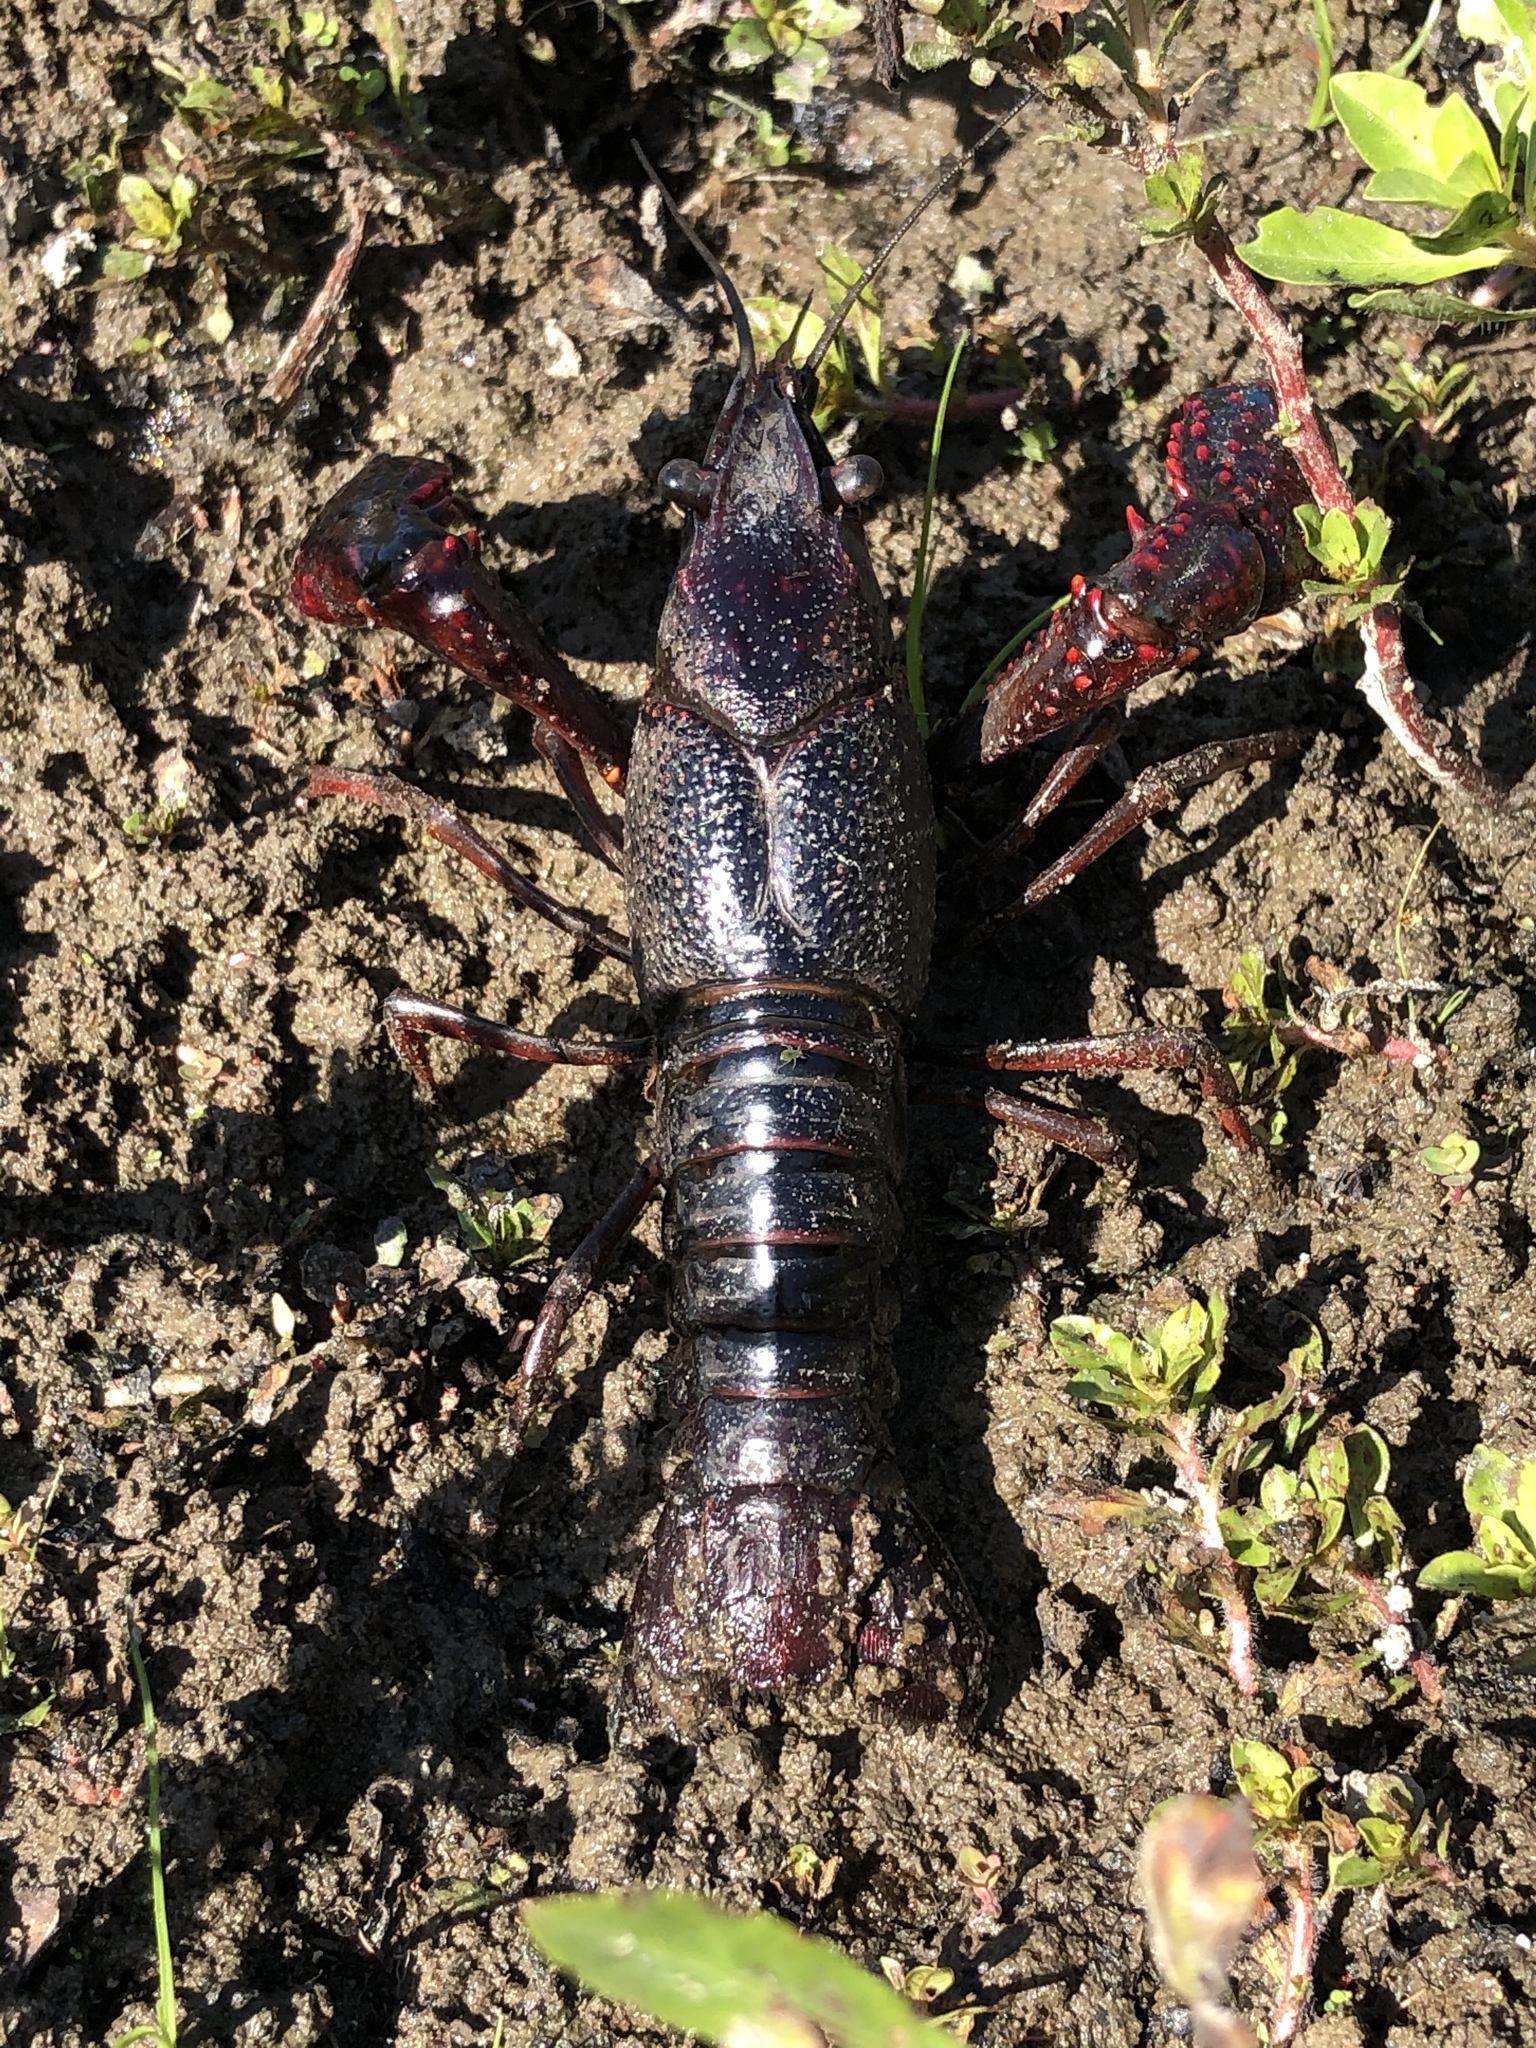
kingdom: Animalia
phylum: Arthropoda
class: Malacostraca
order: Decapoda
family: Cambaridae
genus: Procambarus
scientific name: Procambarus clarkii
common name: Red swamp crayfish
